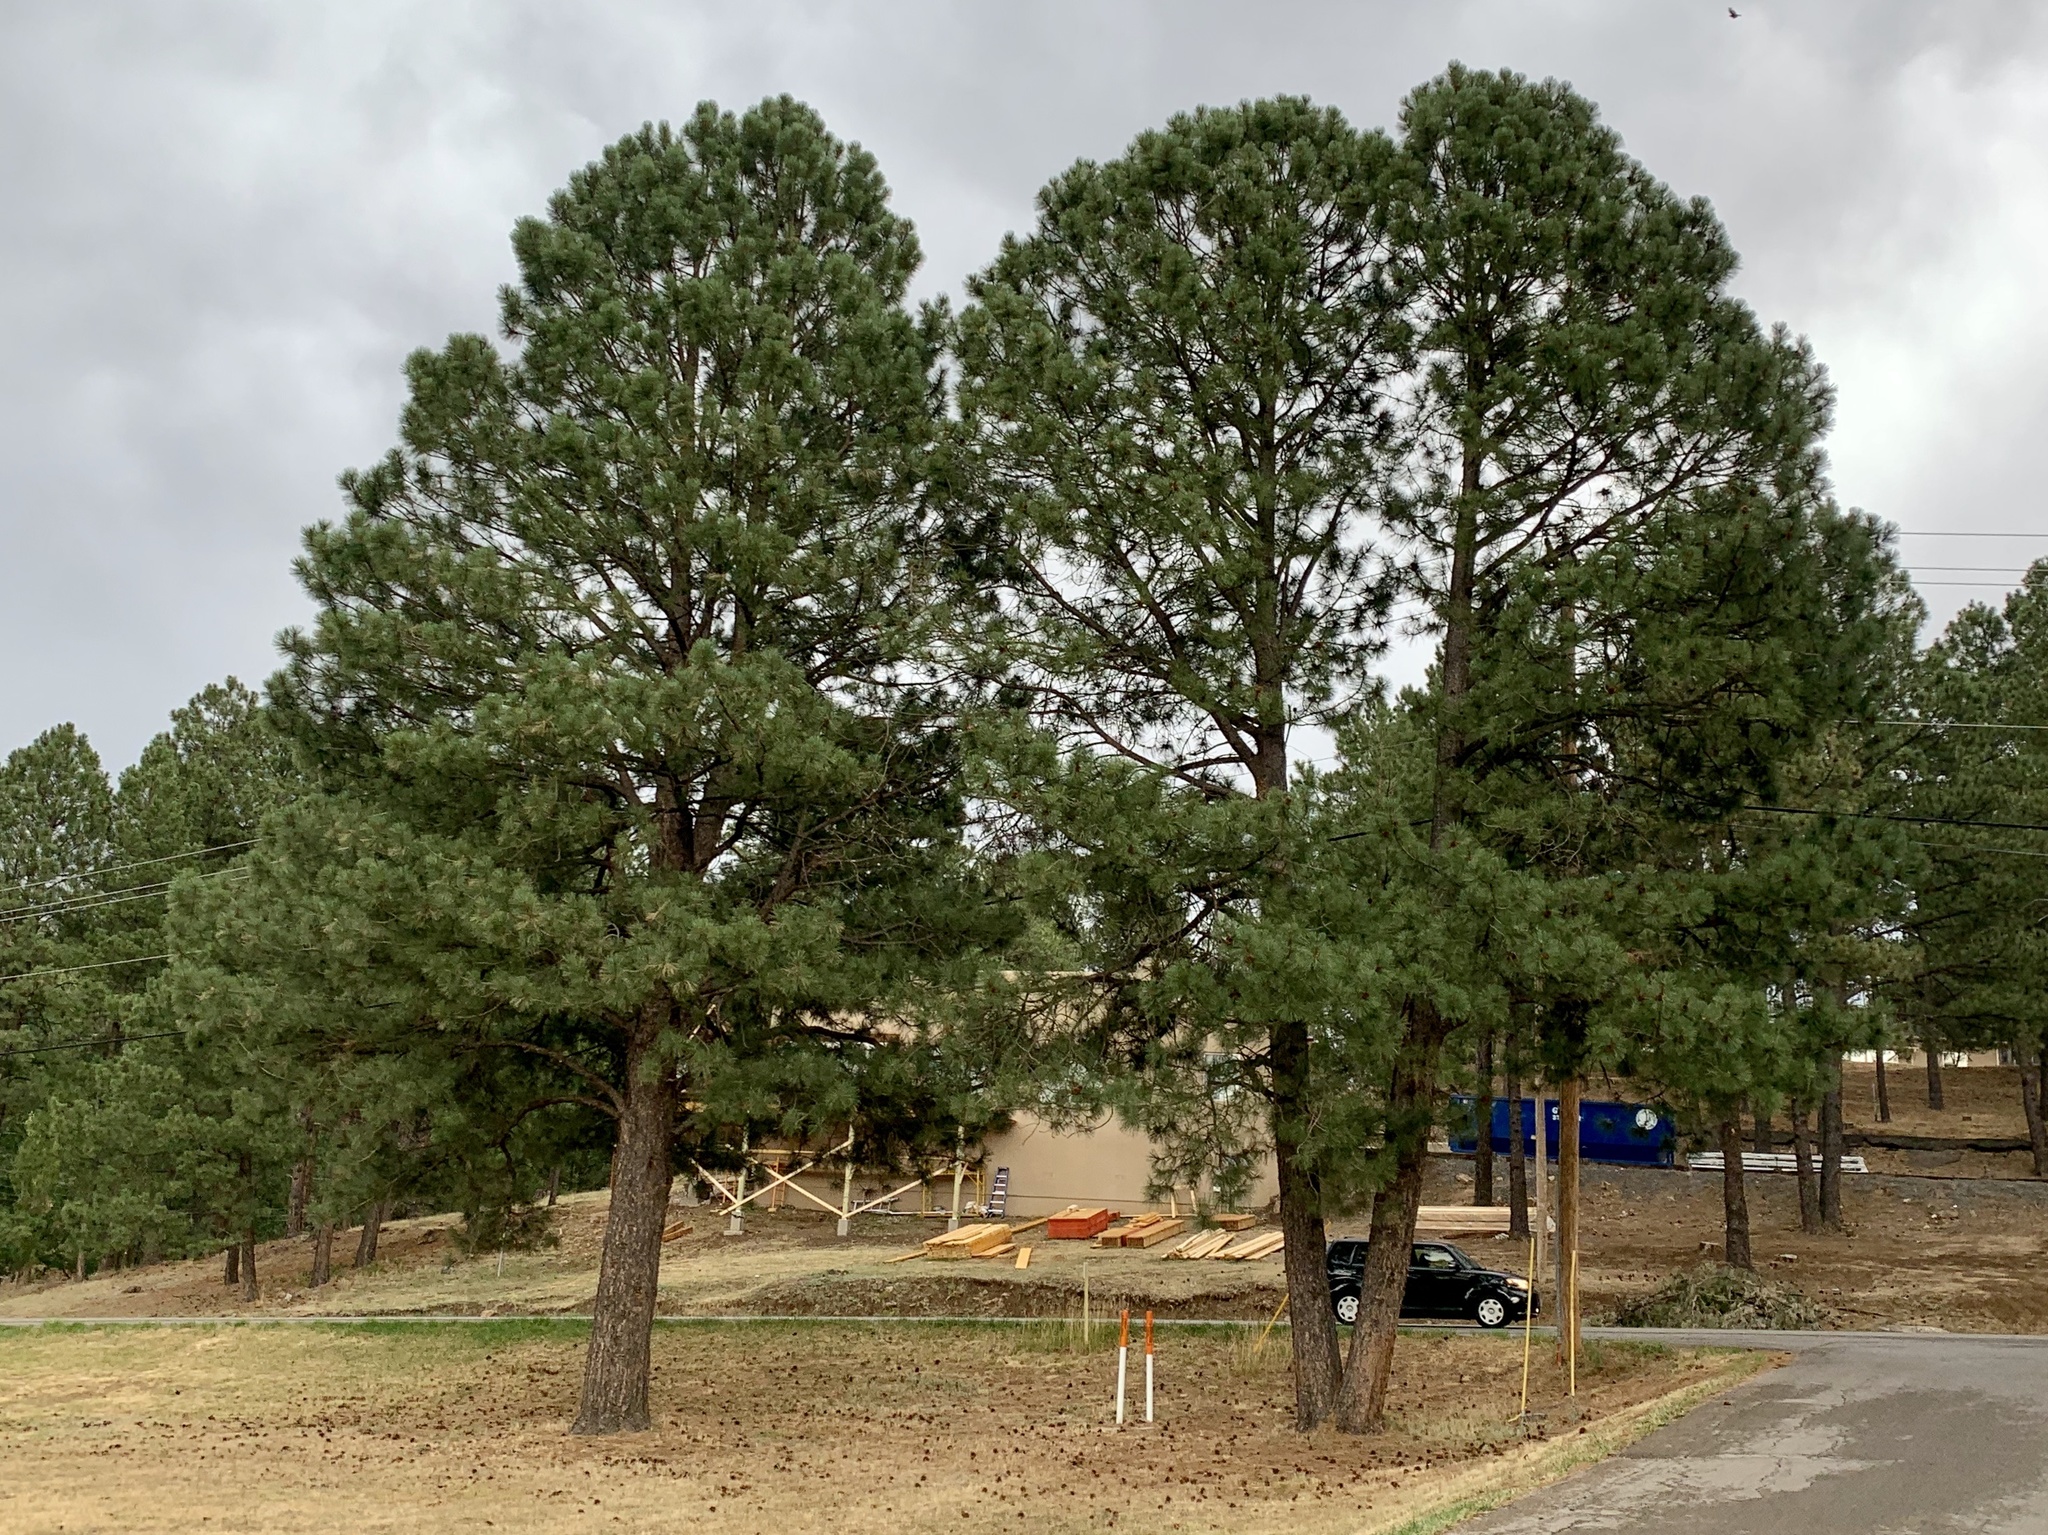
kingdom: Plantae
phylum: Tracheophyta
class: Pinopsida
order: Pinales
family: Pinaceae
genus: Pinus
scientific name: Pinus ponderosa
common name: Western yellow-pine
